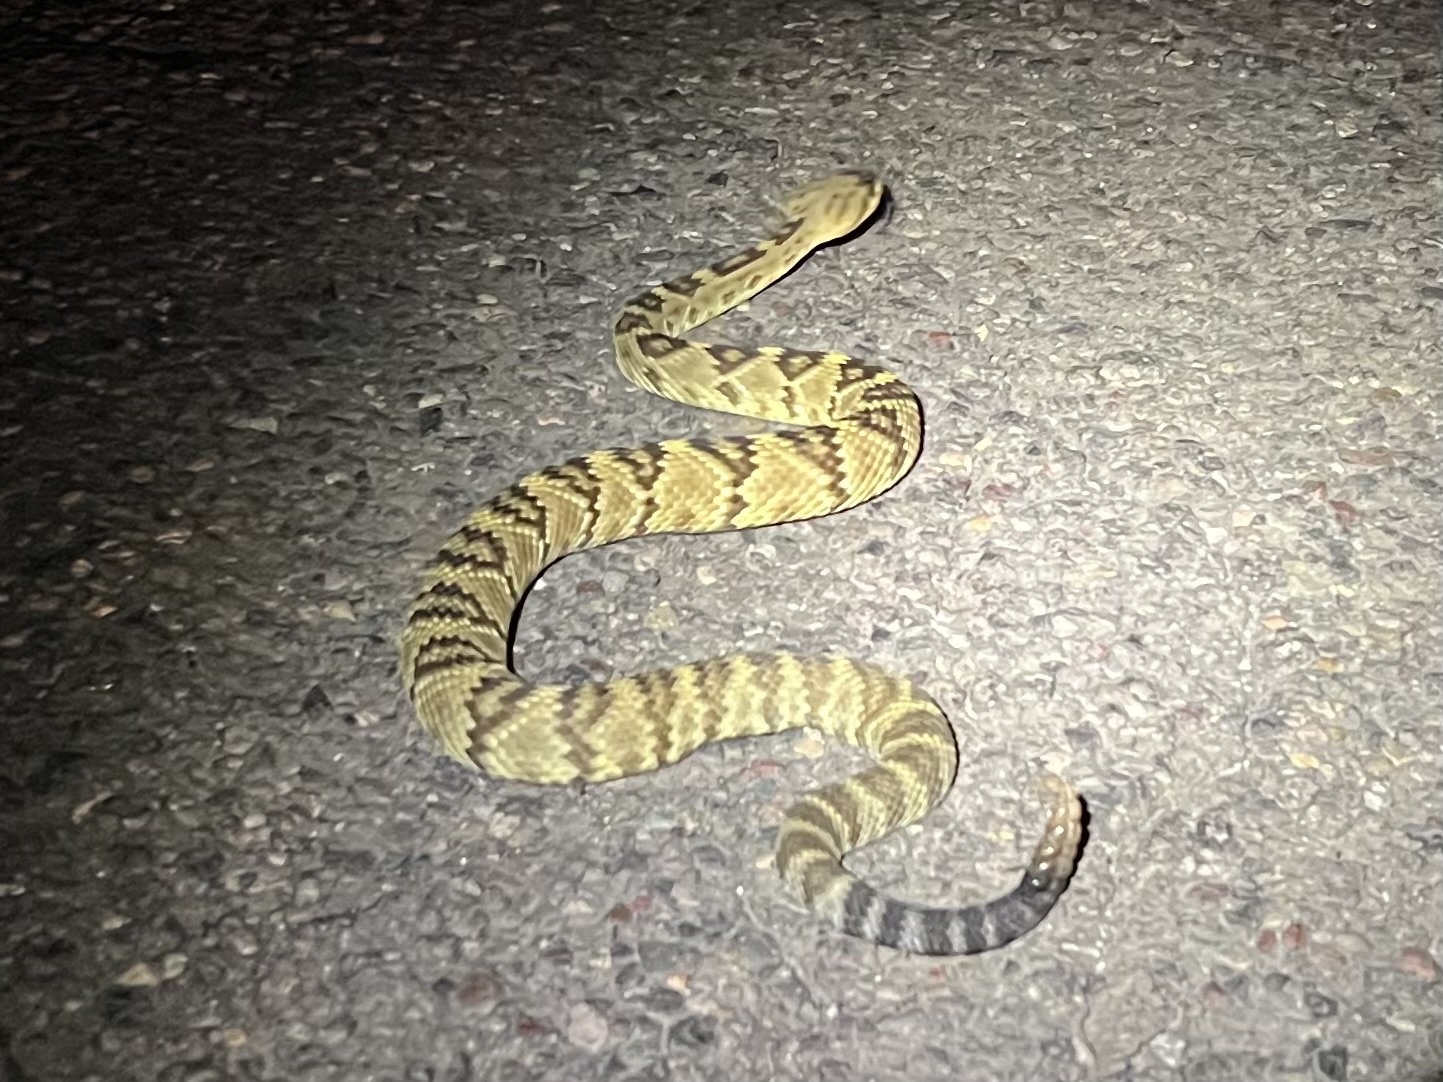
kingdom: Animalia
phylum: Chordata
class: Squamata
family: Viperidae
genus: Crotalus
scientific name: Crotalus molossus
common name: Black tailed rattlesnake
